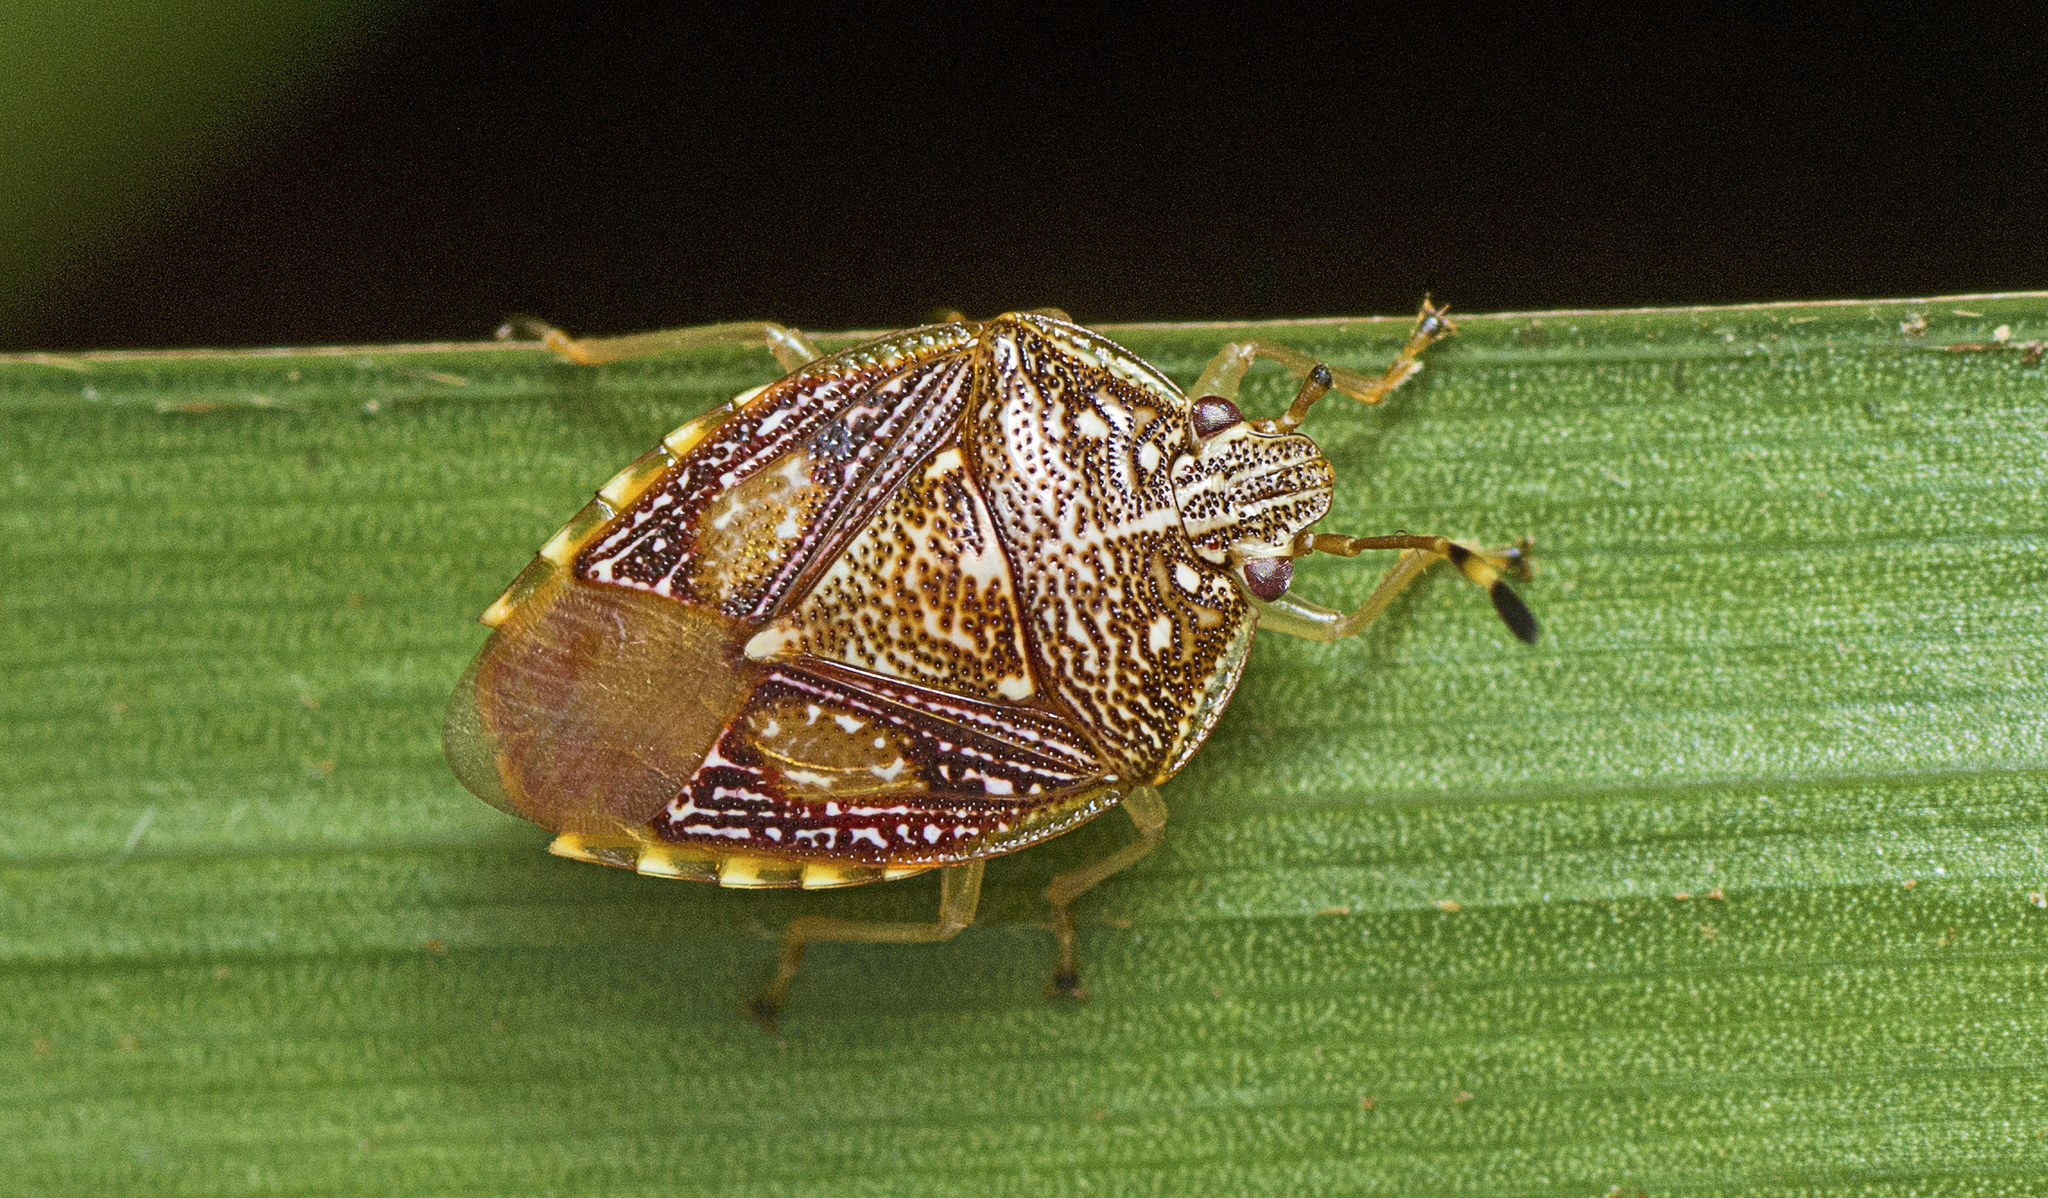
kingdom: Animalia
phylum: Arthropoda
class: Insecta
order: Hemiptera
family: Acanthosomatidae
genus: Anischys
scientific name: Anischys luteovaria
